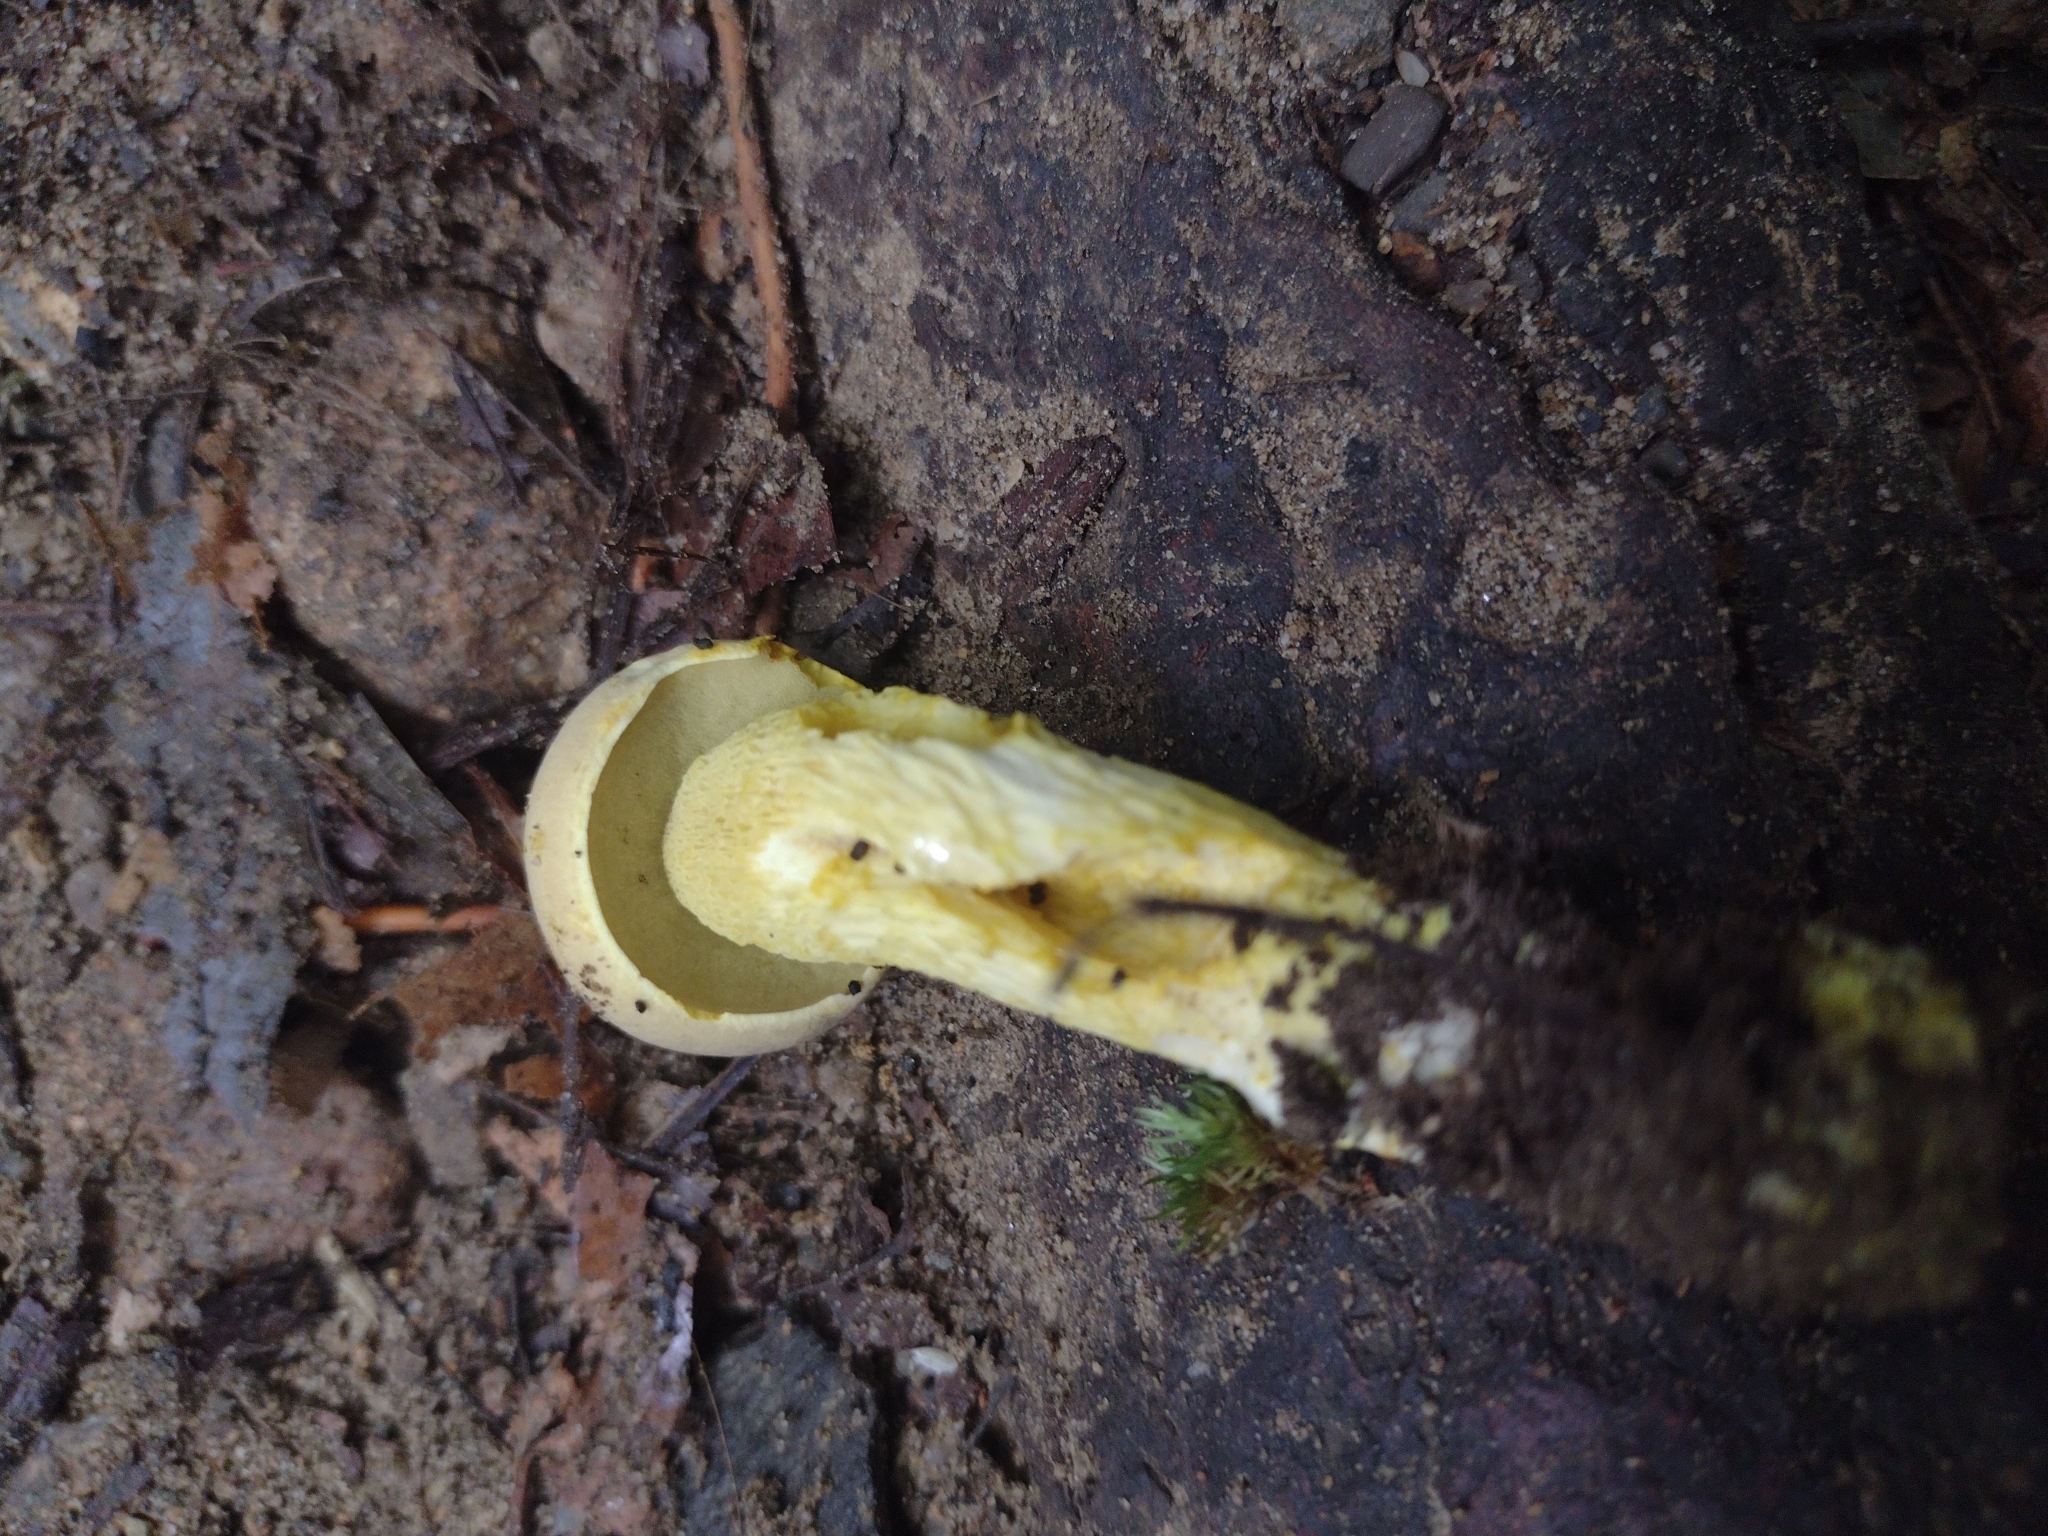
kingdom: Fungi
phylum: Basidiomycota
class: Agaricomycetes
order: Boletales
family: Boletaceae
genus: Retiboletus
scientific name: Retiboletus ornatipes
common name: Ornate-stalked bolete
